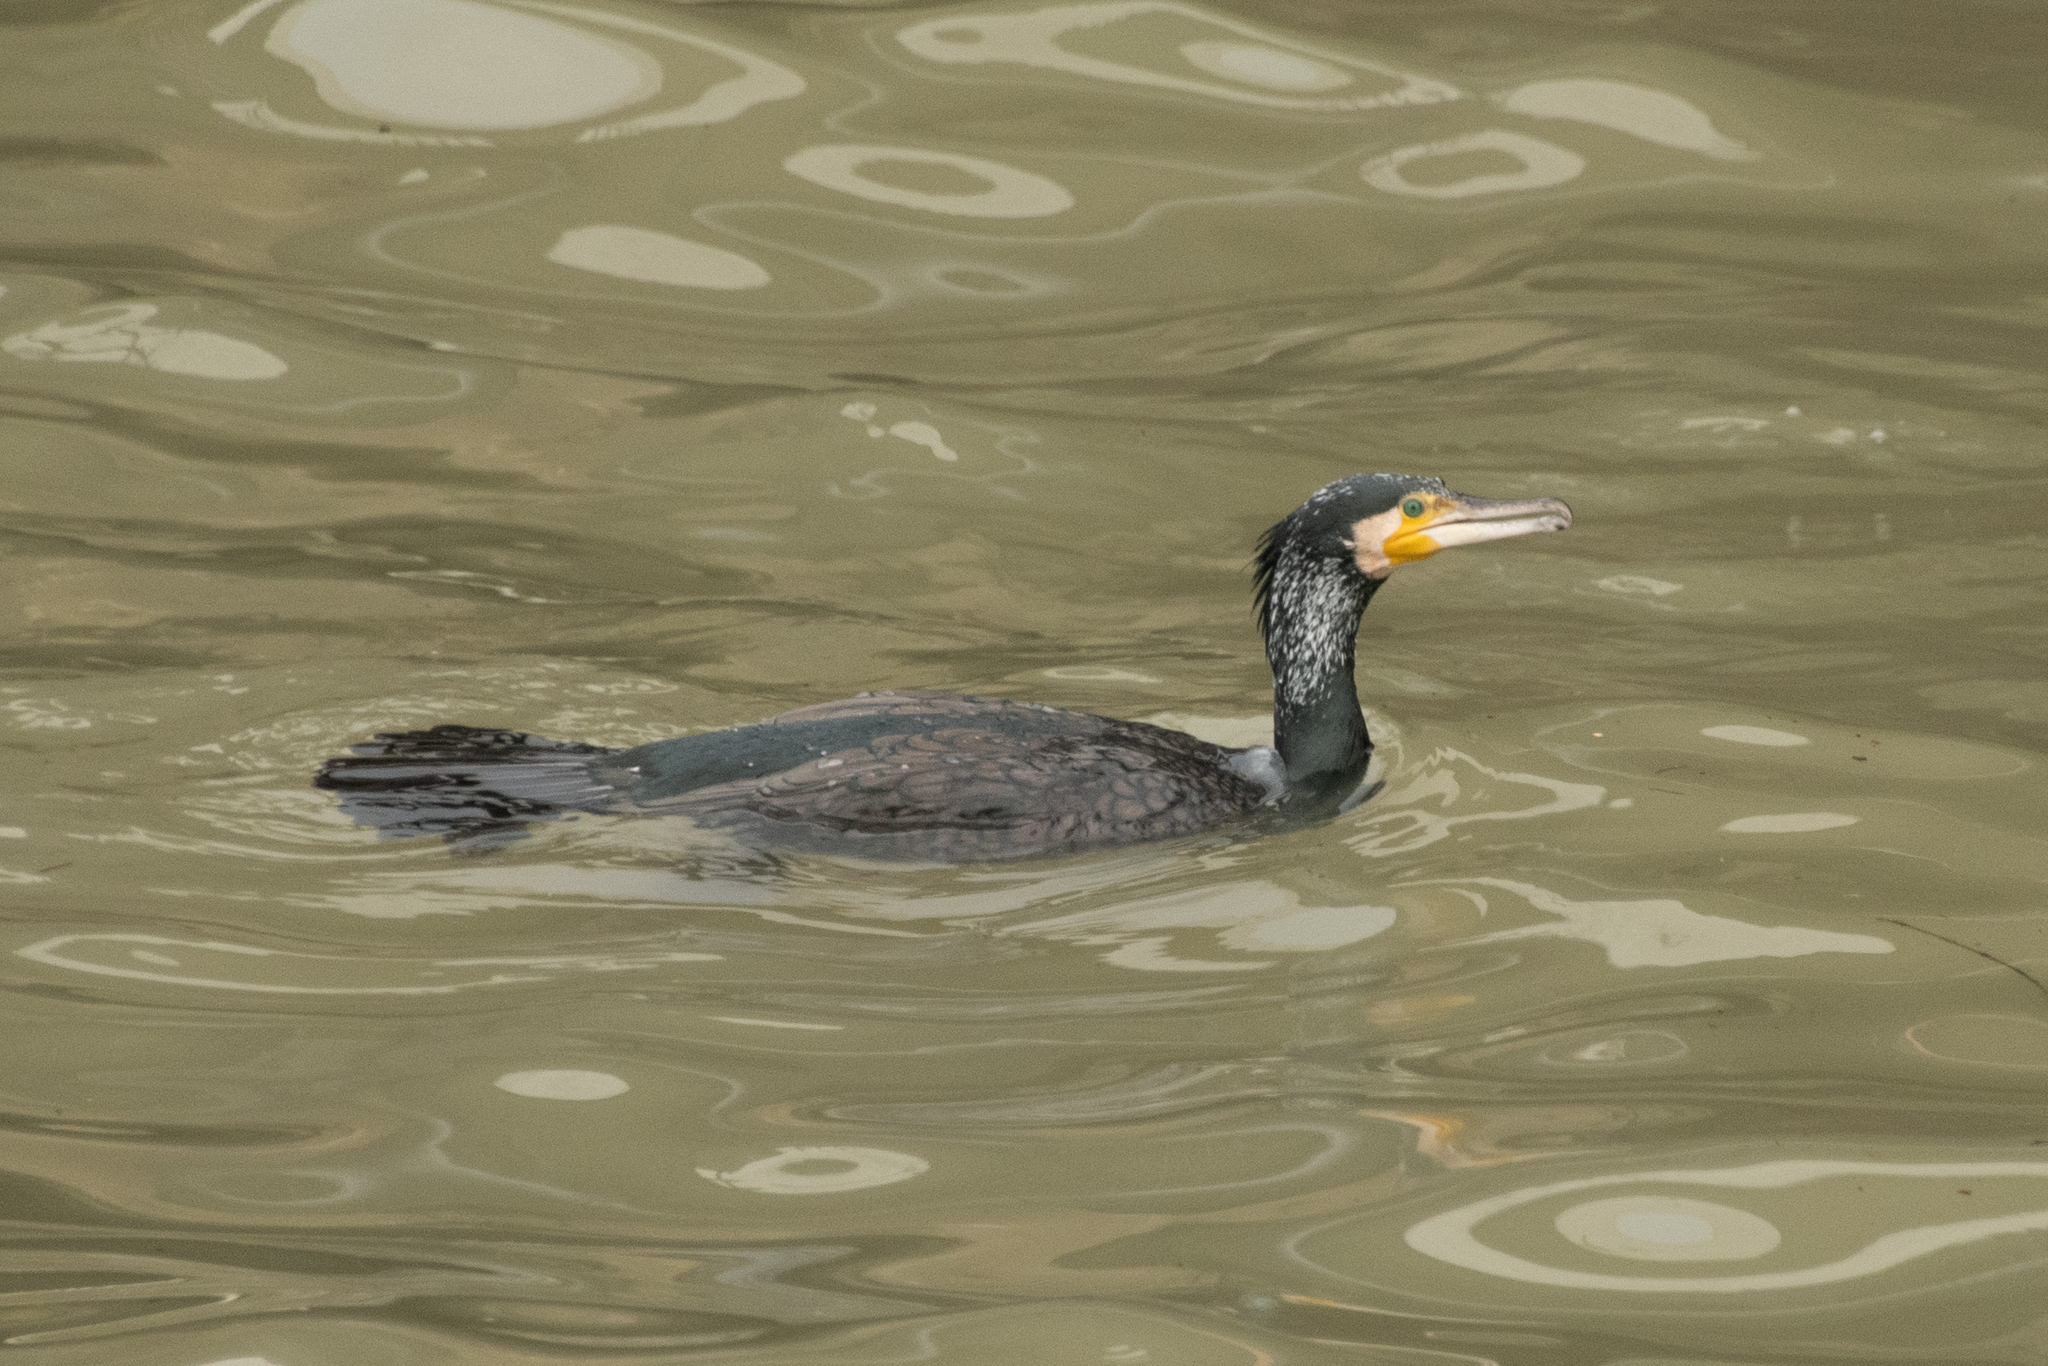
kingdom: Animalia
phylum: Chordata
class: Aves
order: Suliformes
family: Phalacrocoracidae
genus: Phalacrocorax
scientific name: Phalacrocorax carbo
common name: Great cormorant
